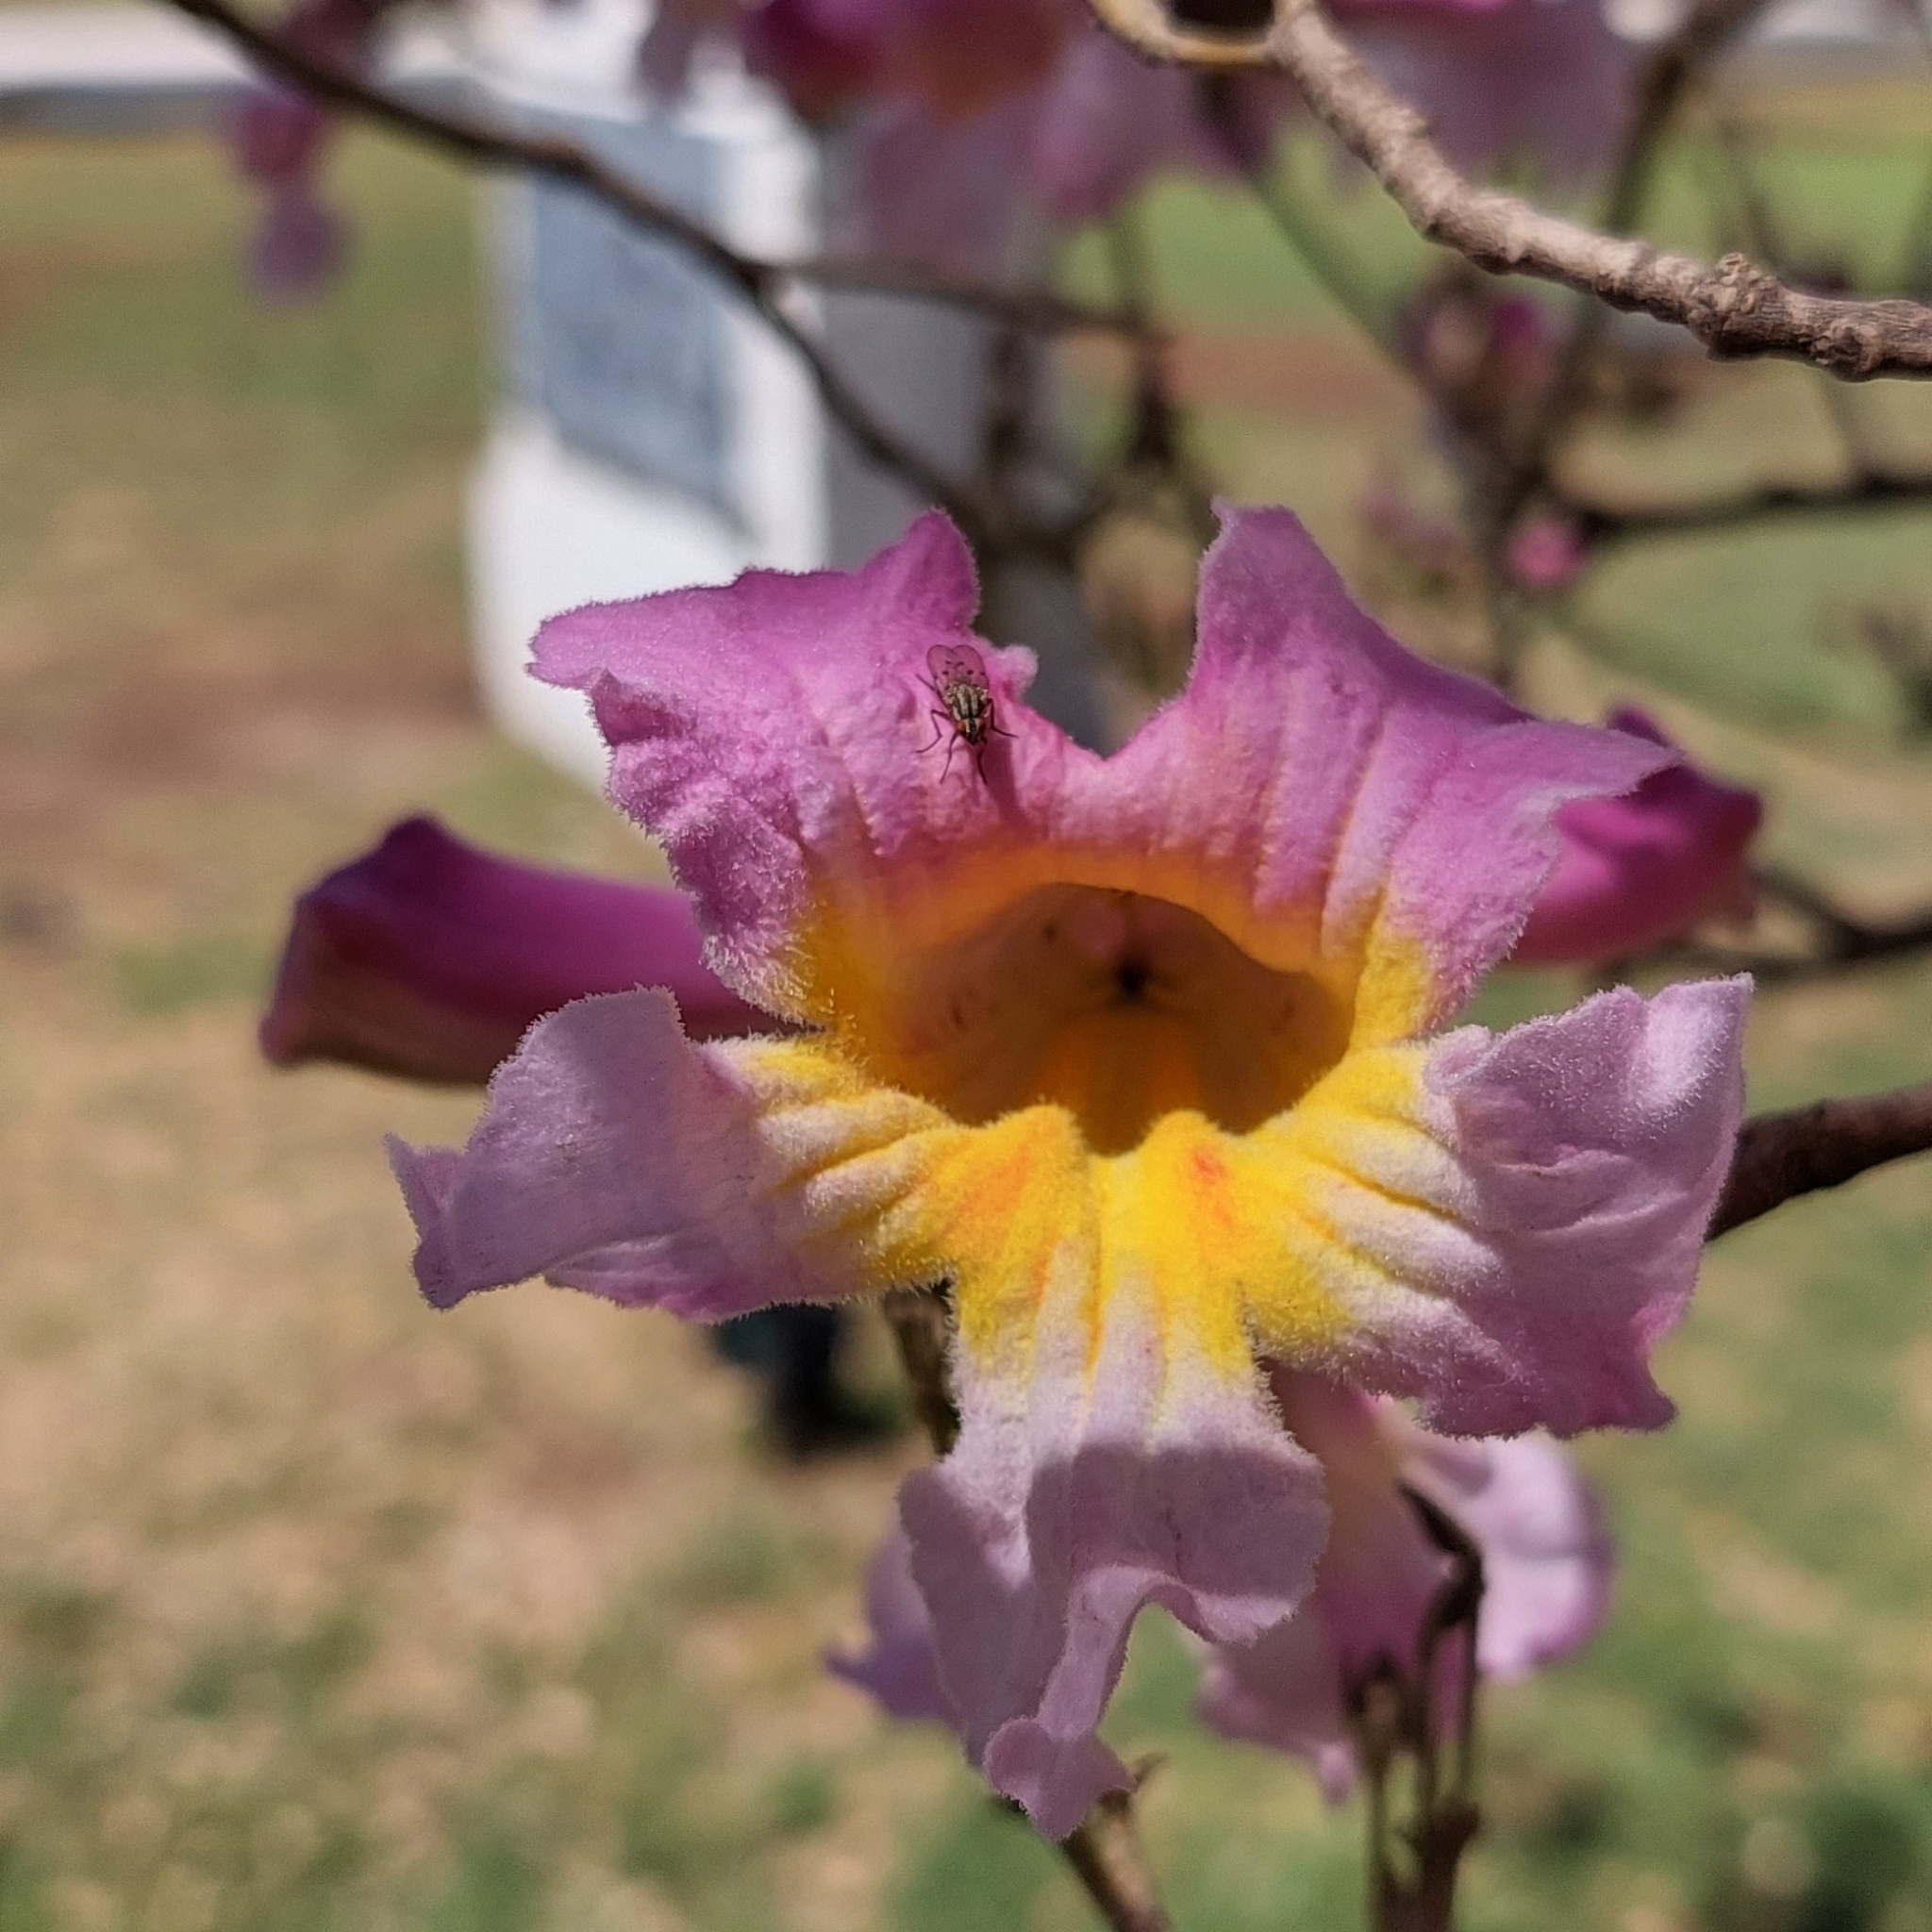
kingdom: Animalia
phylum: Arthropoda
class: Insecta
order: Diptera
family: Anthomyiidae
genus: Anthomyia
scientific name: Anthomyia punctipennis
